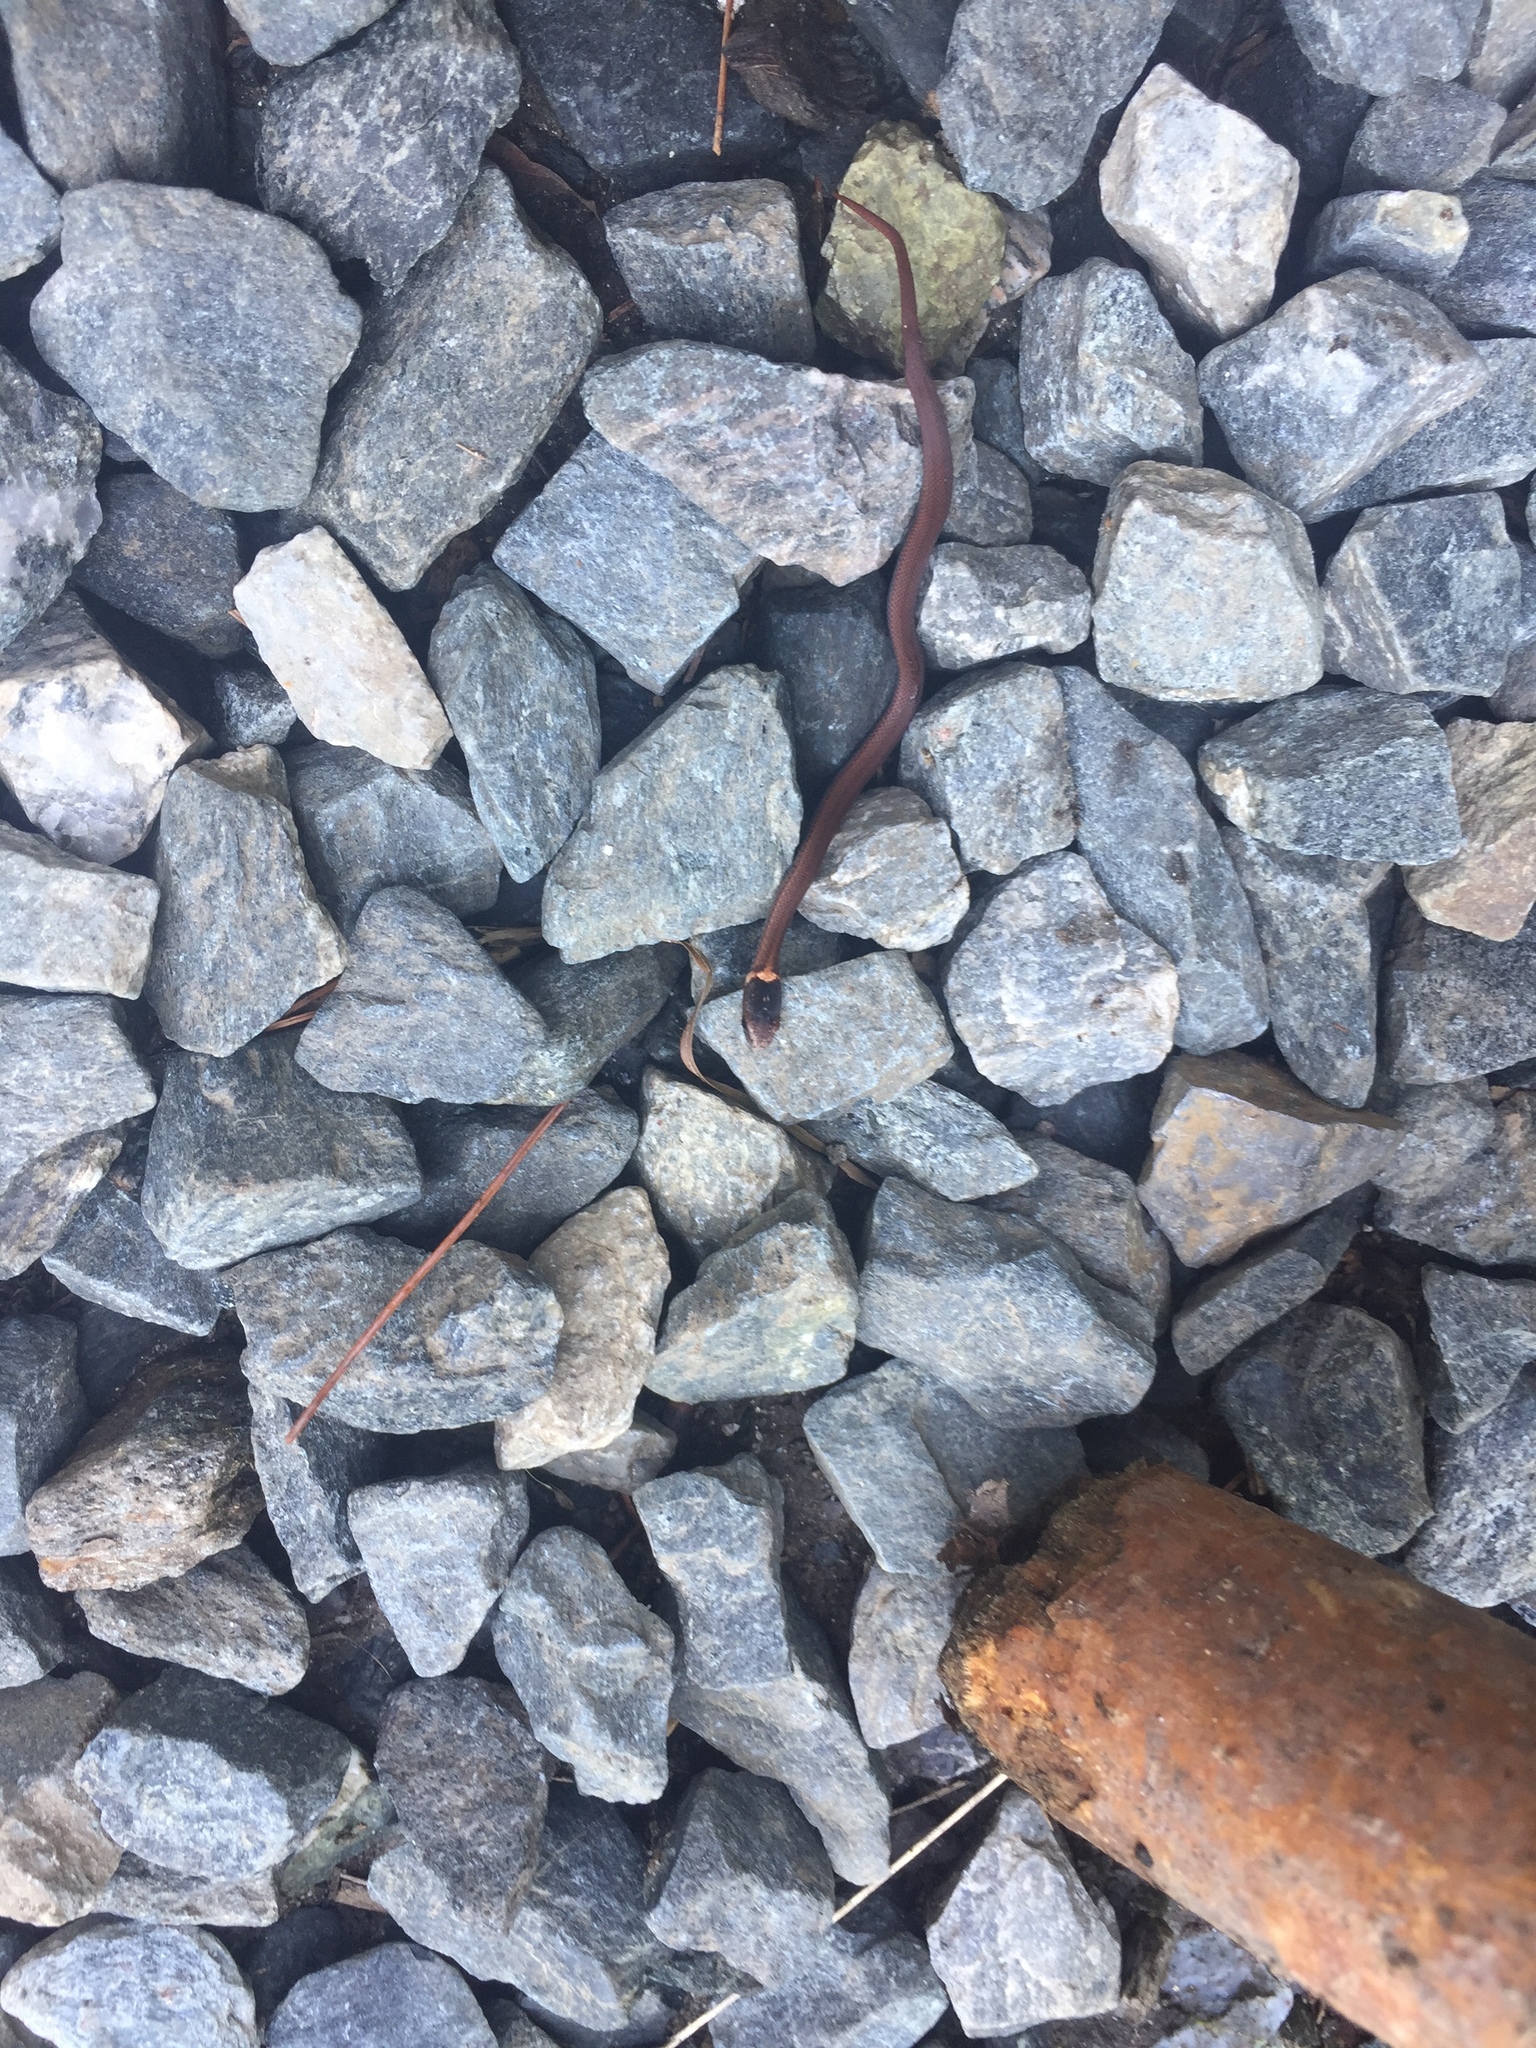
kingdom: Animalia
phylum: Chordata
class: Squamata
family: Colubridae
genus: Storeria
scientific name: Storeria occipitomaculata
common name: Redbelly snake
